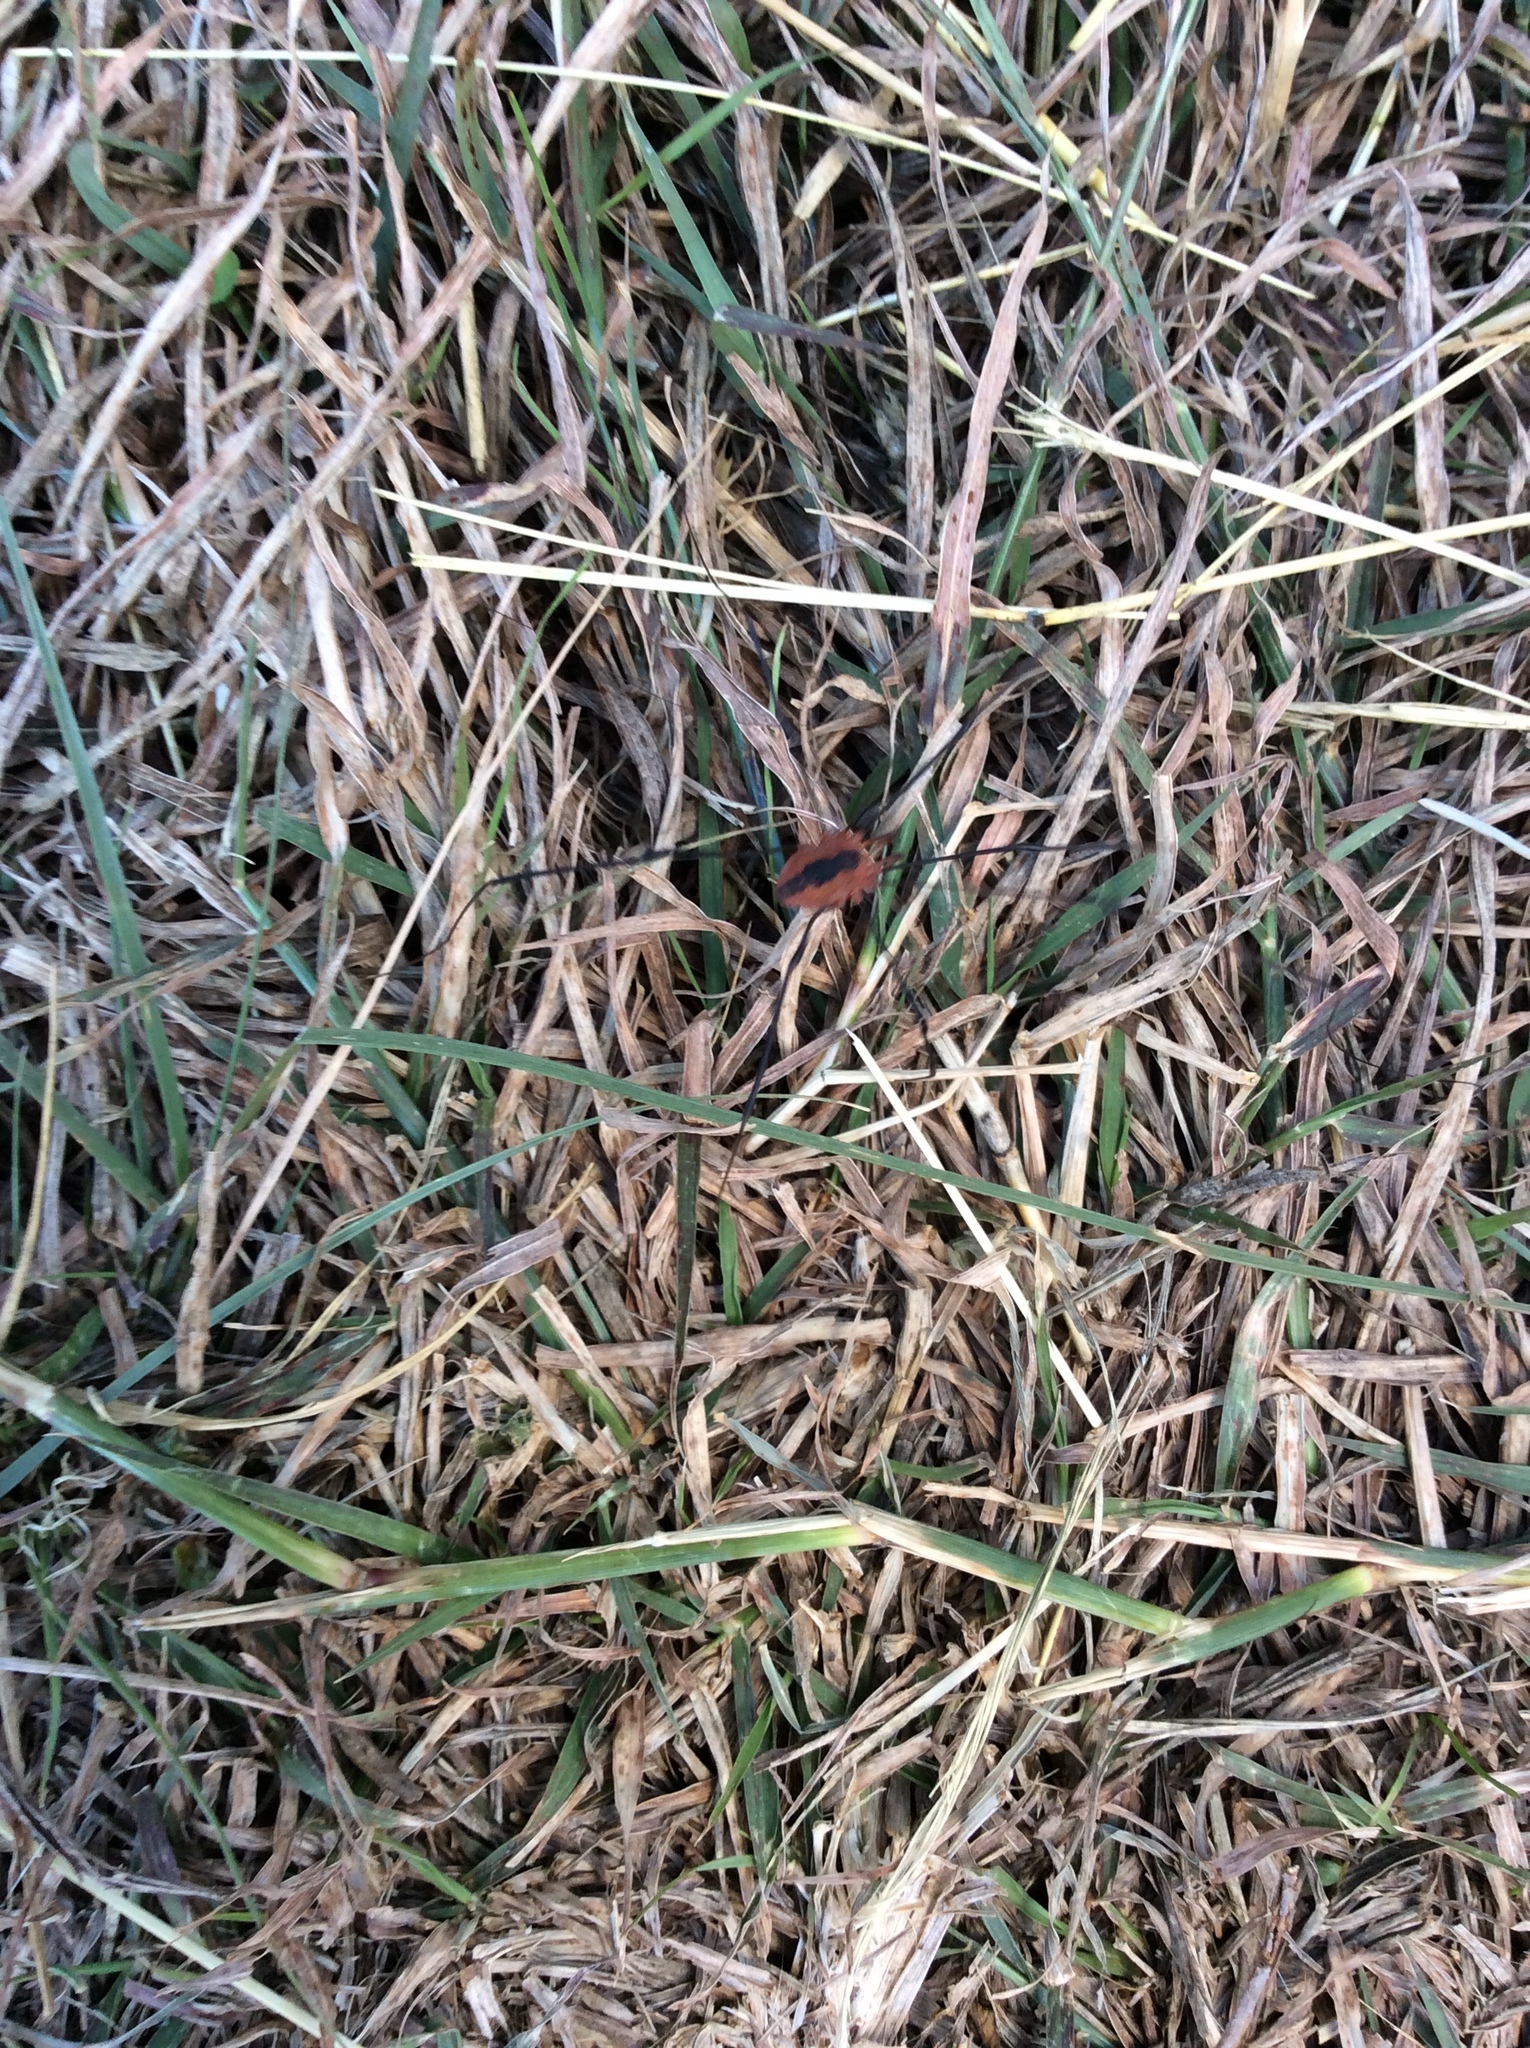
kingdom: Animalia
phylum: Arthropoda
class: Arachnida
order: Opiliones
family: Sclerosomatidae
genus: Leiobunum
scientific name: Leiobunum vittatum
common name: Eastern harvestman
